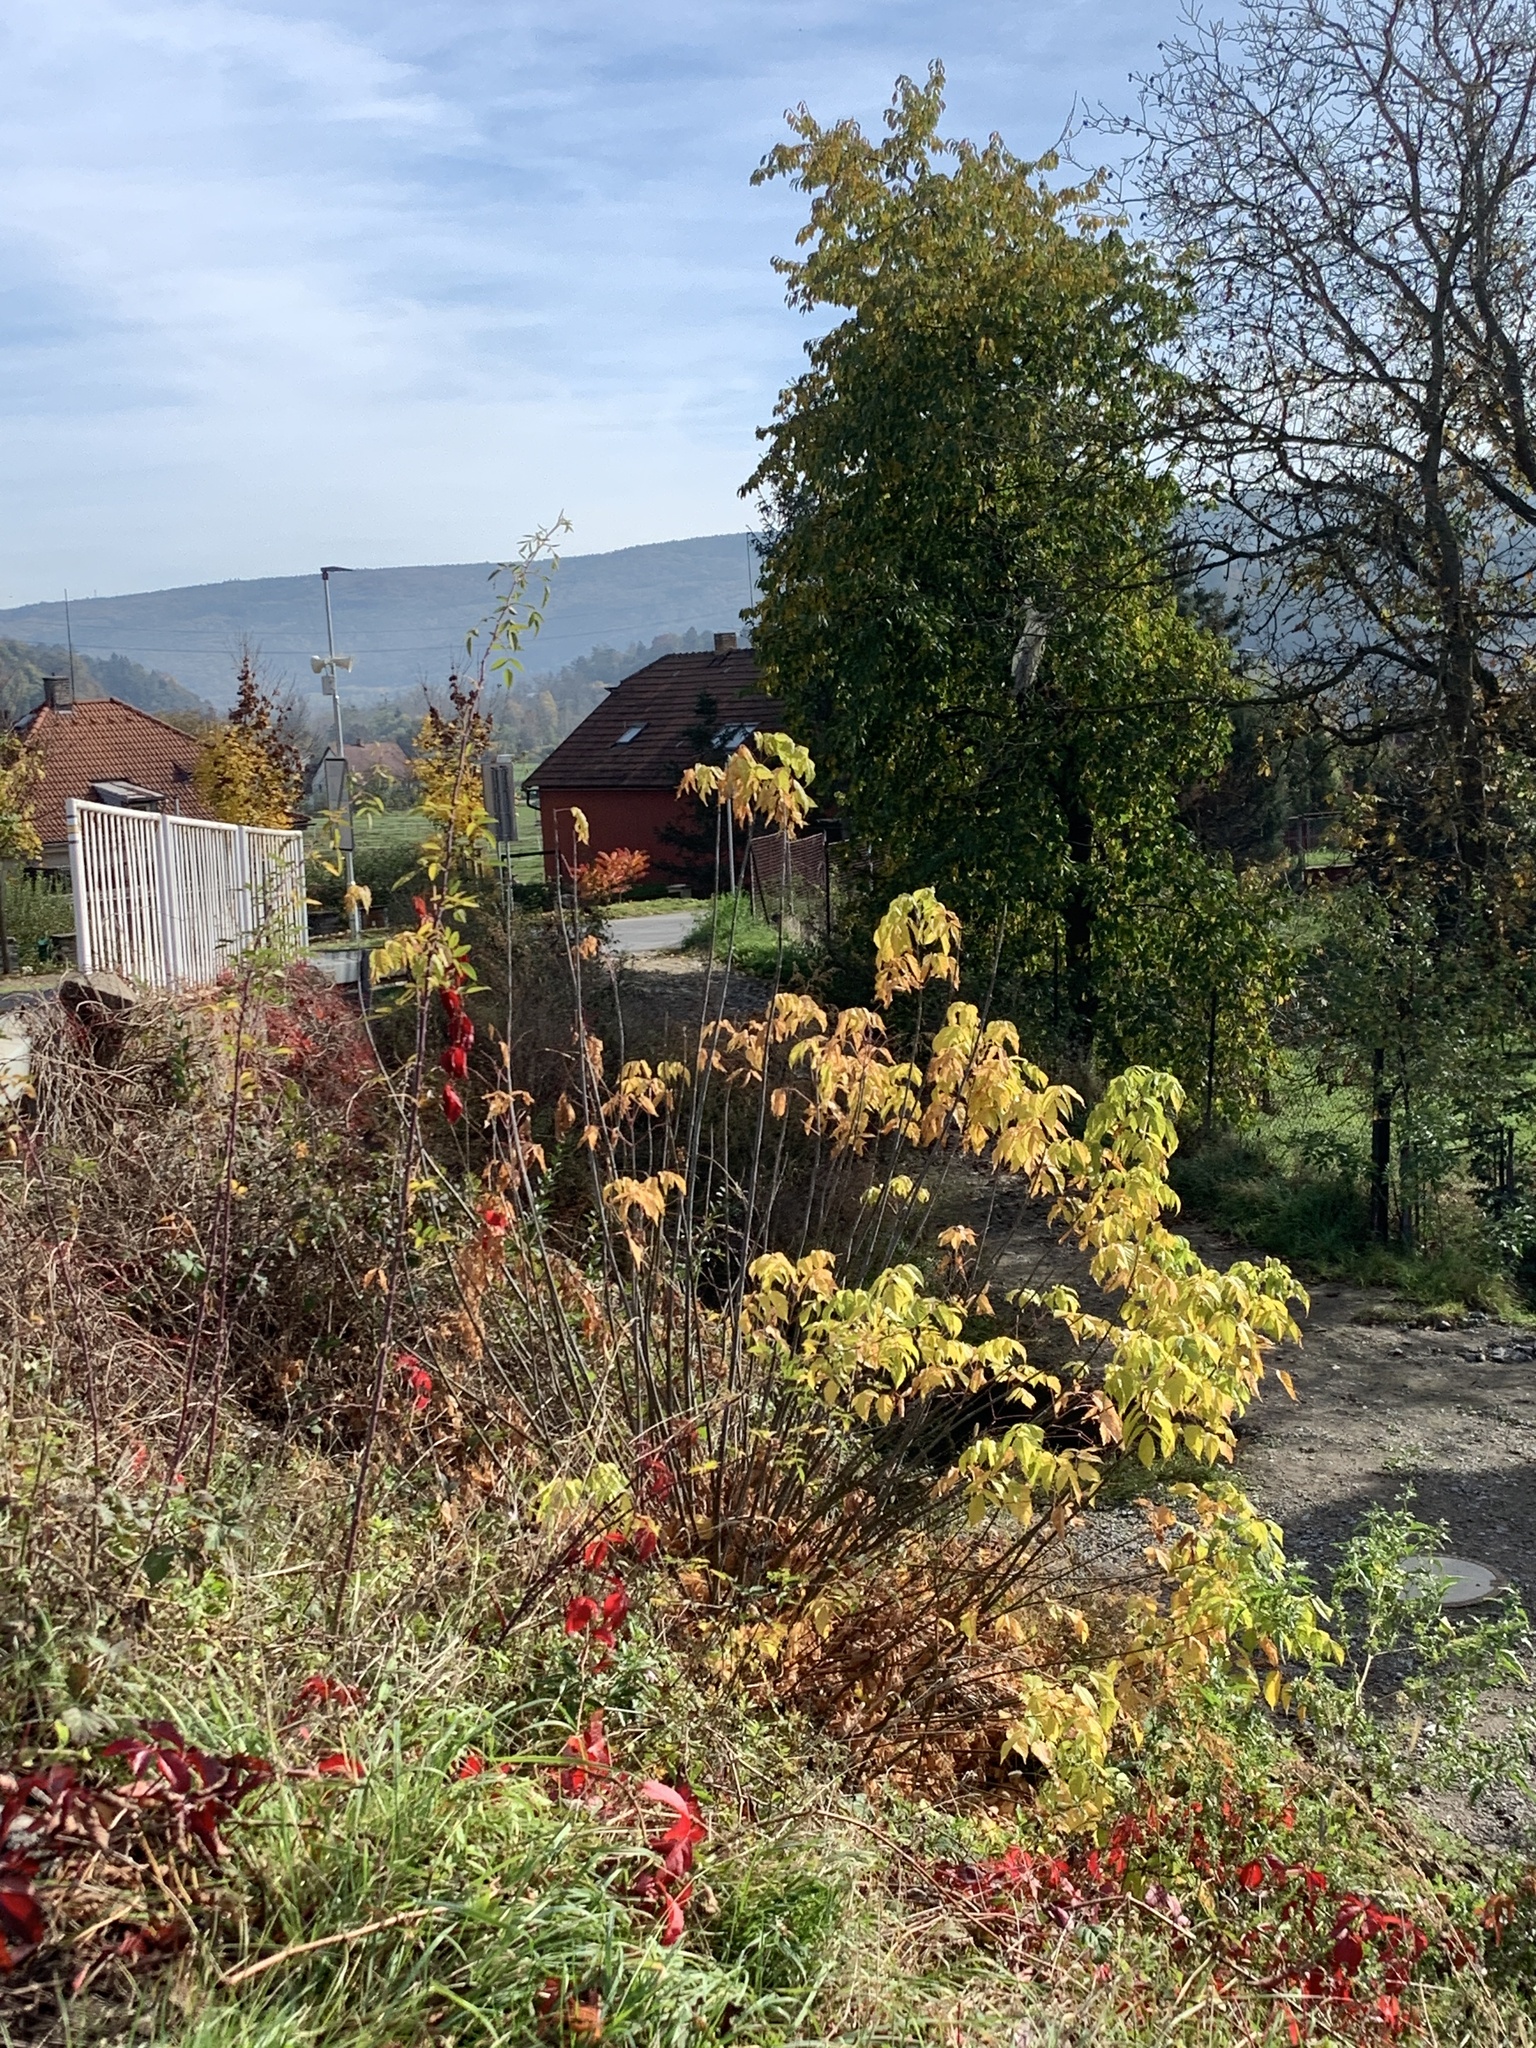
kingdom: Plantae
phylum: Tracheophyta
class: Magnoliopsida
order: Sapindales
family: Sapindaceae
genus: Acer
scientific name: Acer negundo
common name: Ashleaf maple
